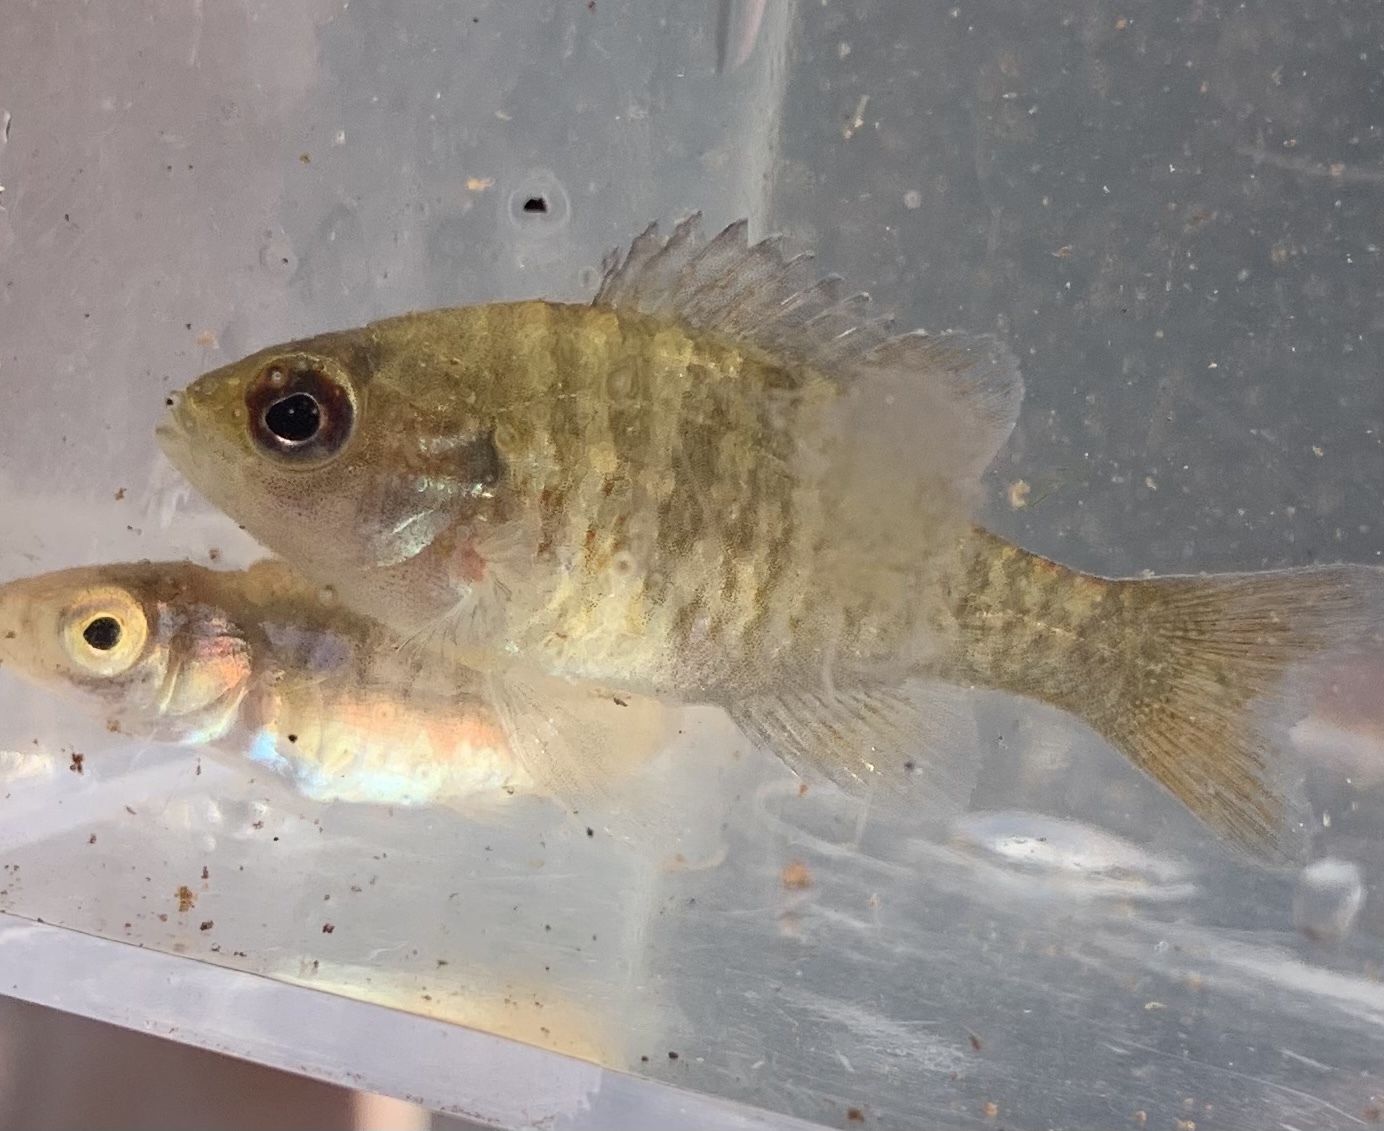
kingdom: Animalia
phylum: Chordata
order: Perciformes
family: Centrarchidae
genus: Lepomis
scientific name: Lepomis auritus
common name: Redbreast sunfish
